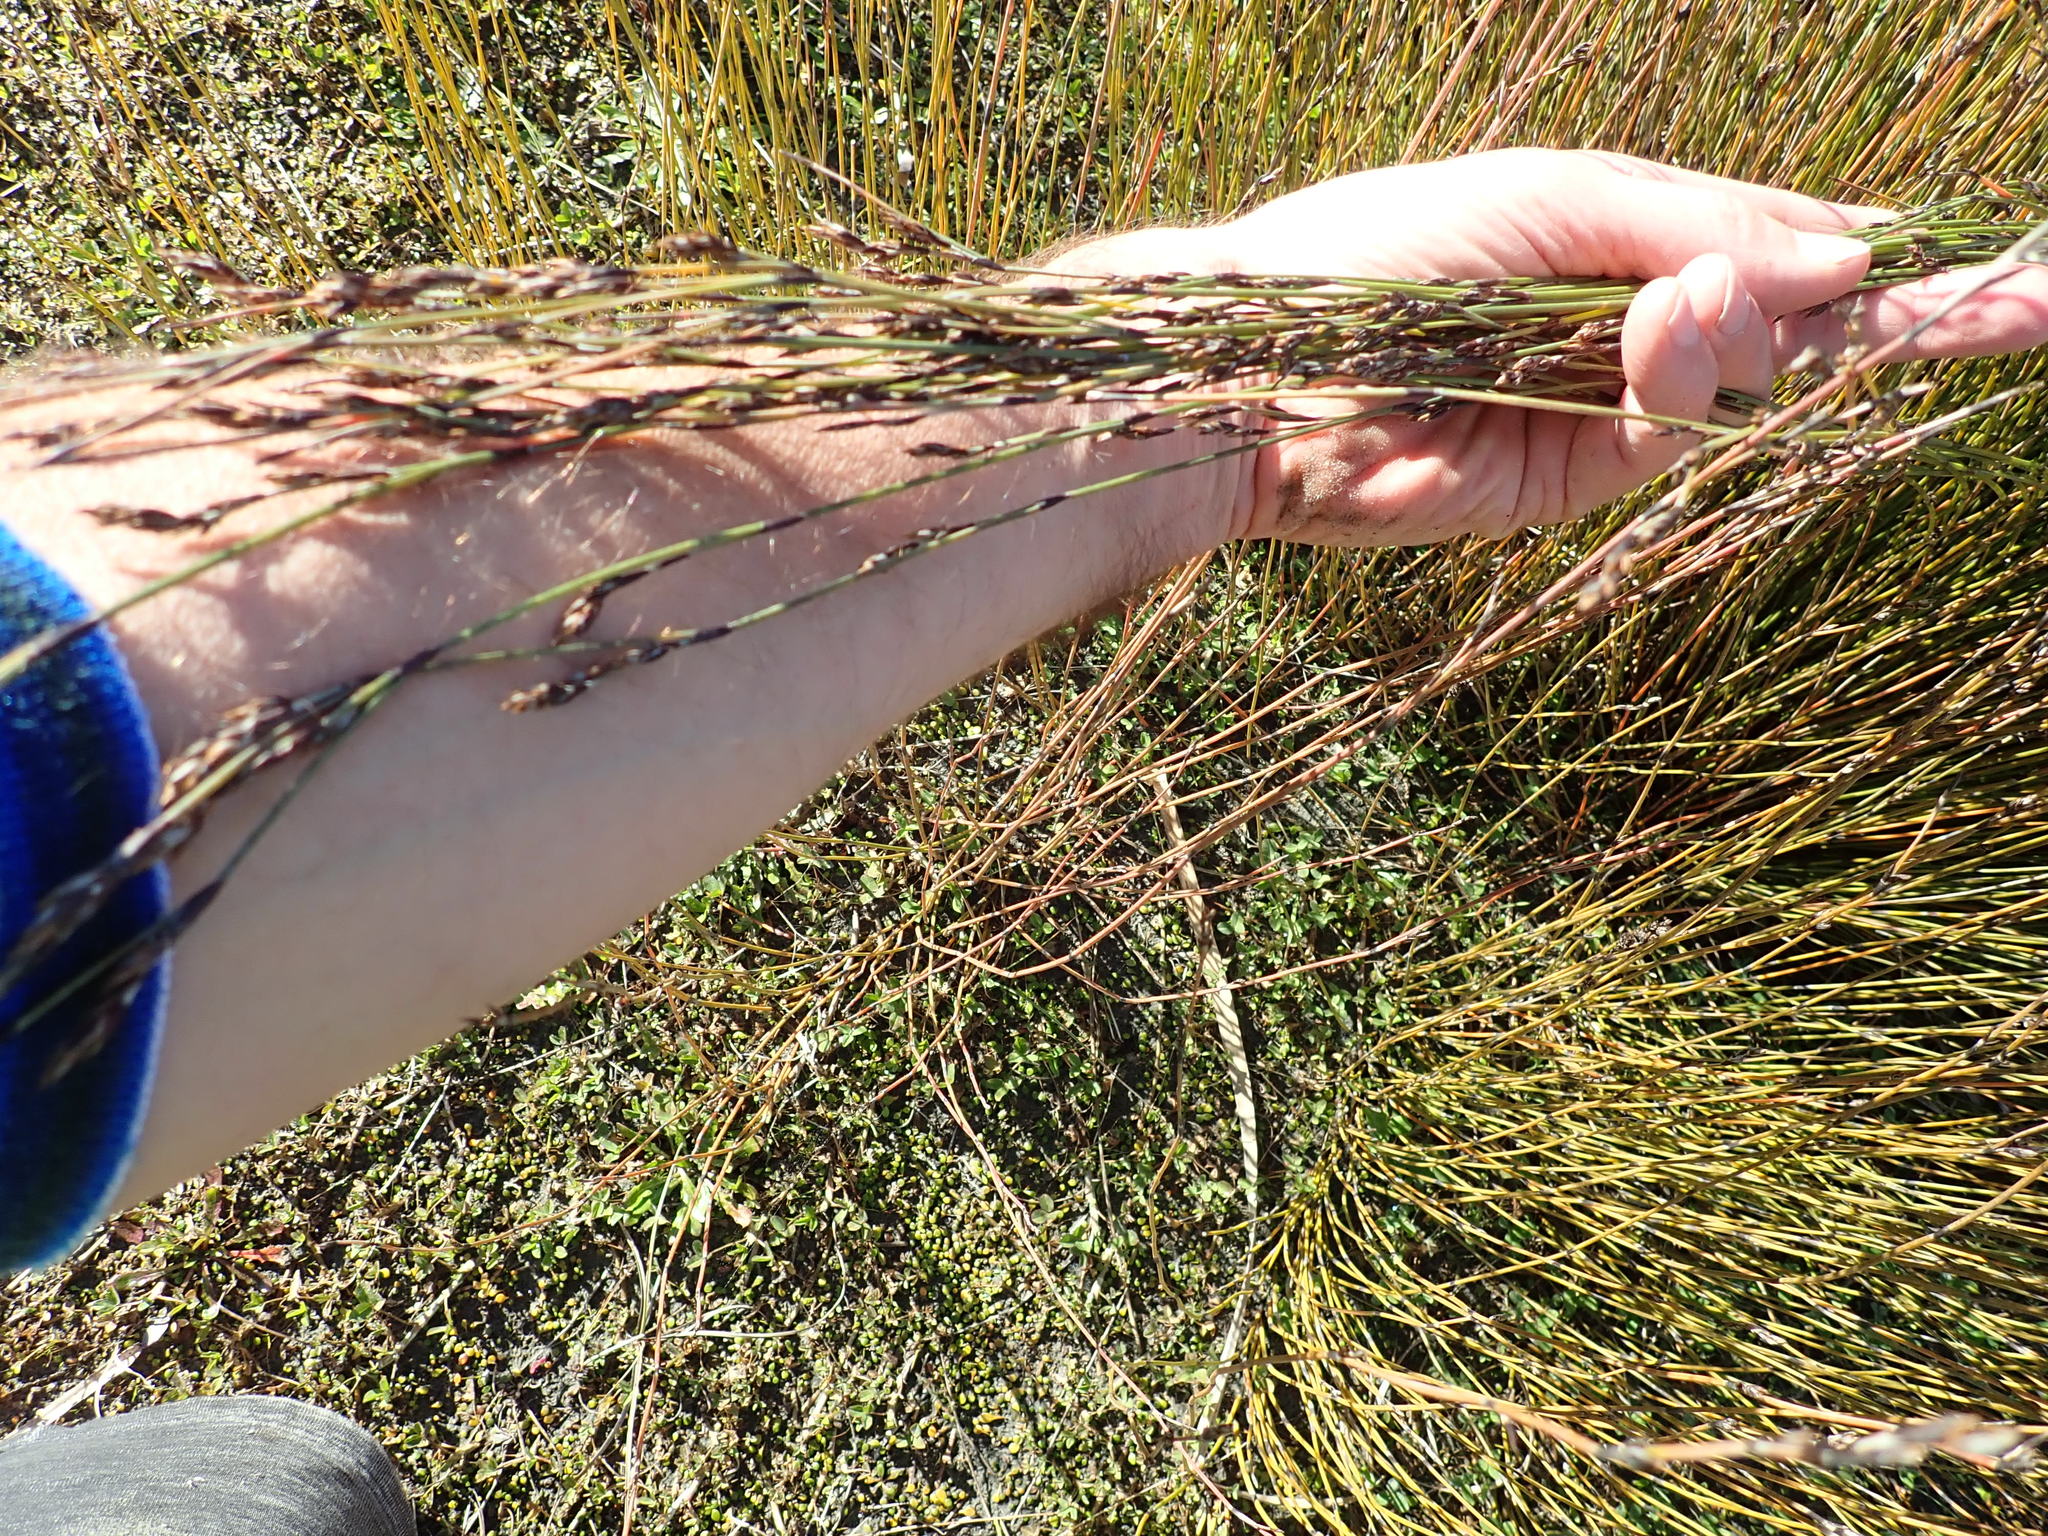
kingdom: Plantae
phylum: Tracheophyta
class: Liliopsida
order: Poales
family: Restionaceae
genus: Apodasmia
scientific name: Apodasmia similis
